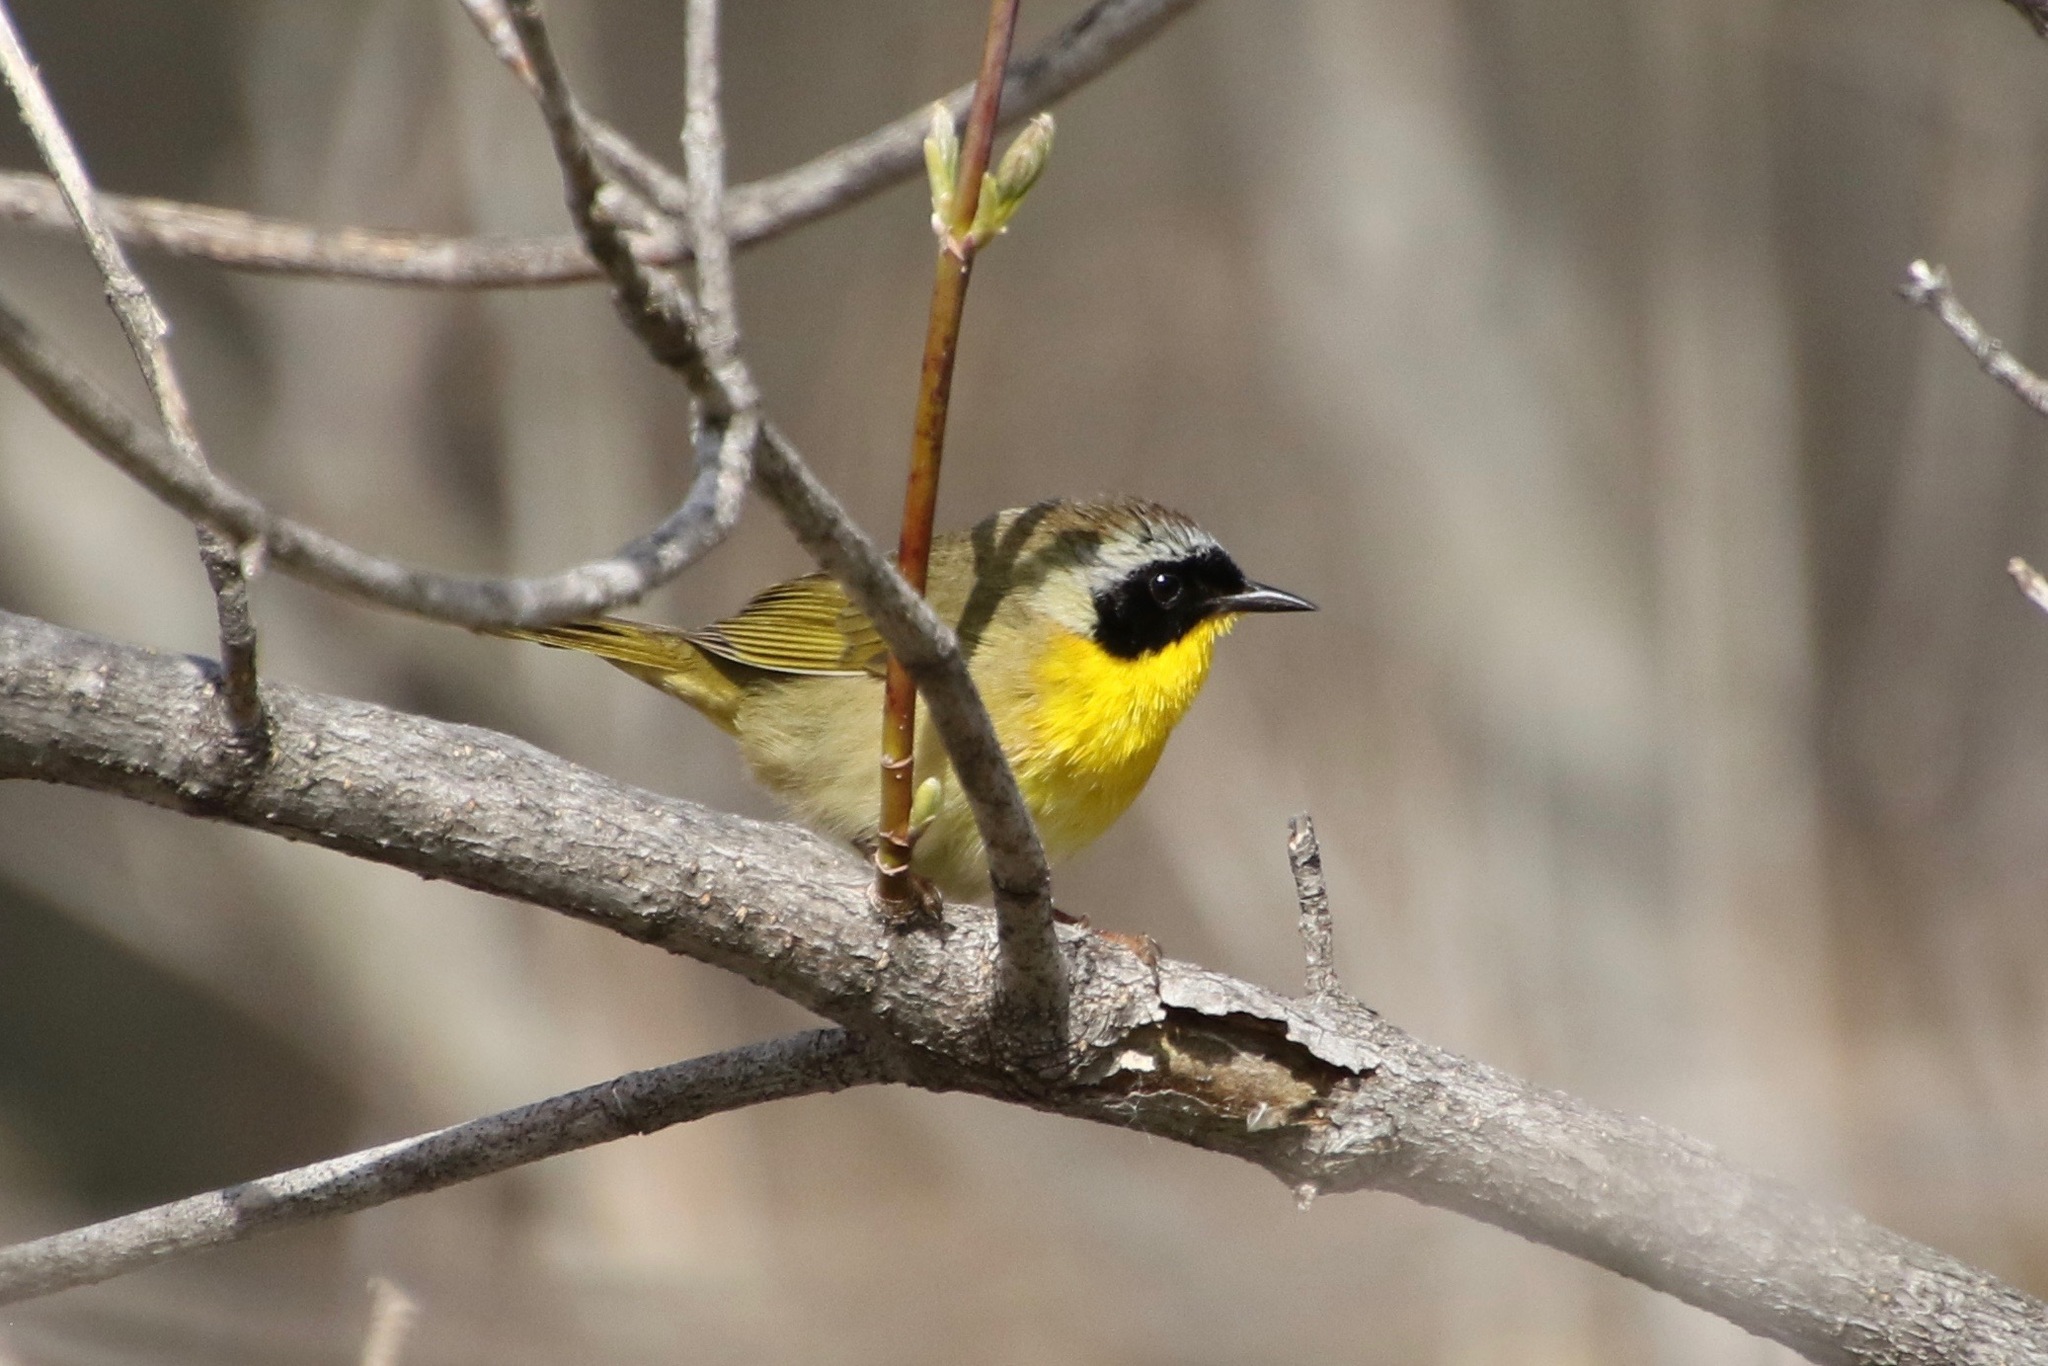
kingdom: Animalia
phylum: Chordata
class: Aves
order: Passeriformes
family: Parulidae
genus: Geothlypis
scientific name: Geothlypis trichas
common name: Common yellowthroat
